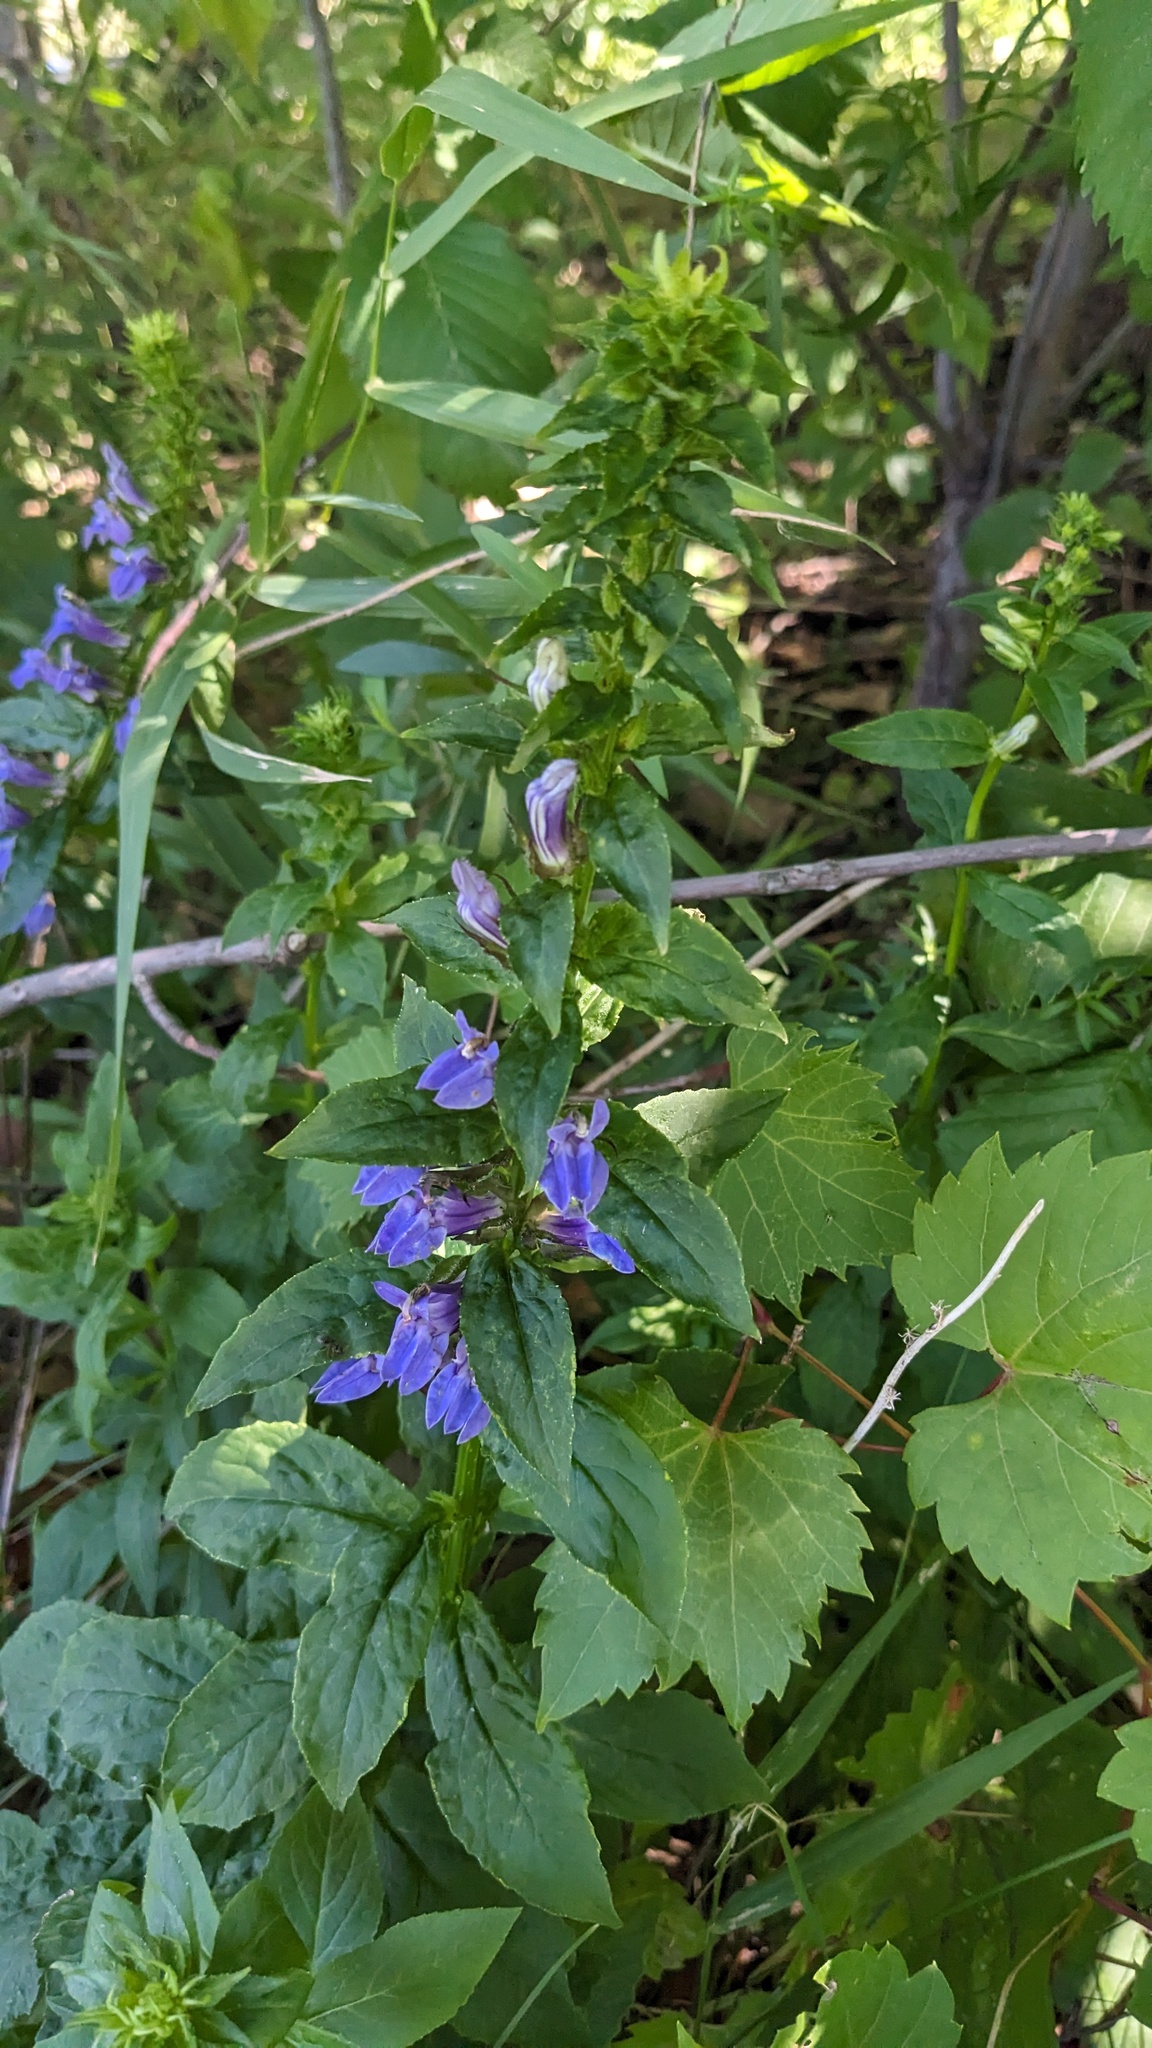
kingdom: Plantae
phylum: Tracheophyta
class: Magnoliopsida
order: Asterales
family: Campanulaceae
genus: Lobelia
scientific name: Lobelia siphilitica
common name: Great lobelia
